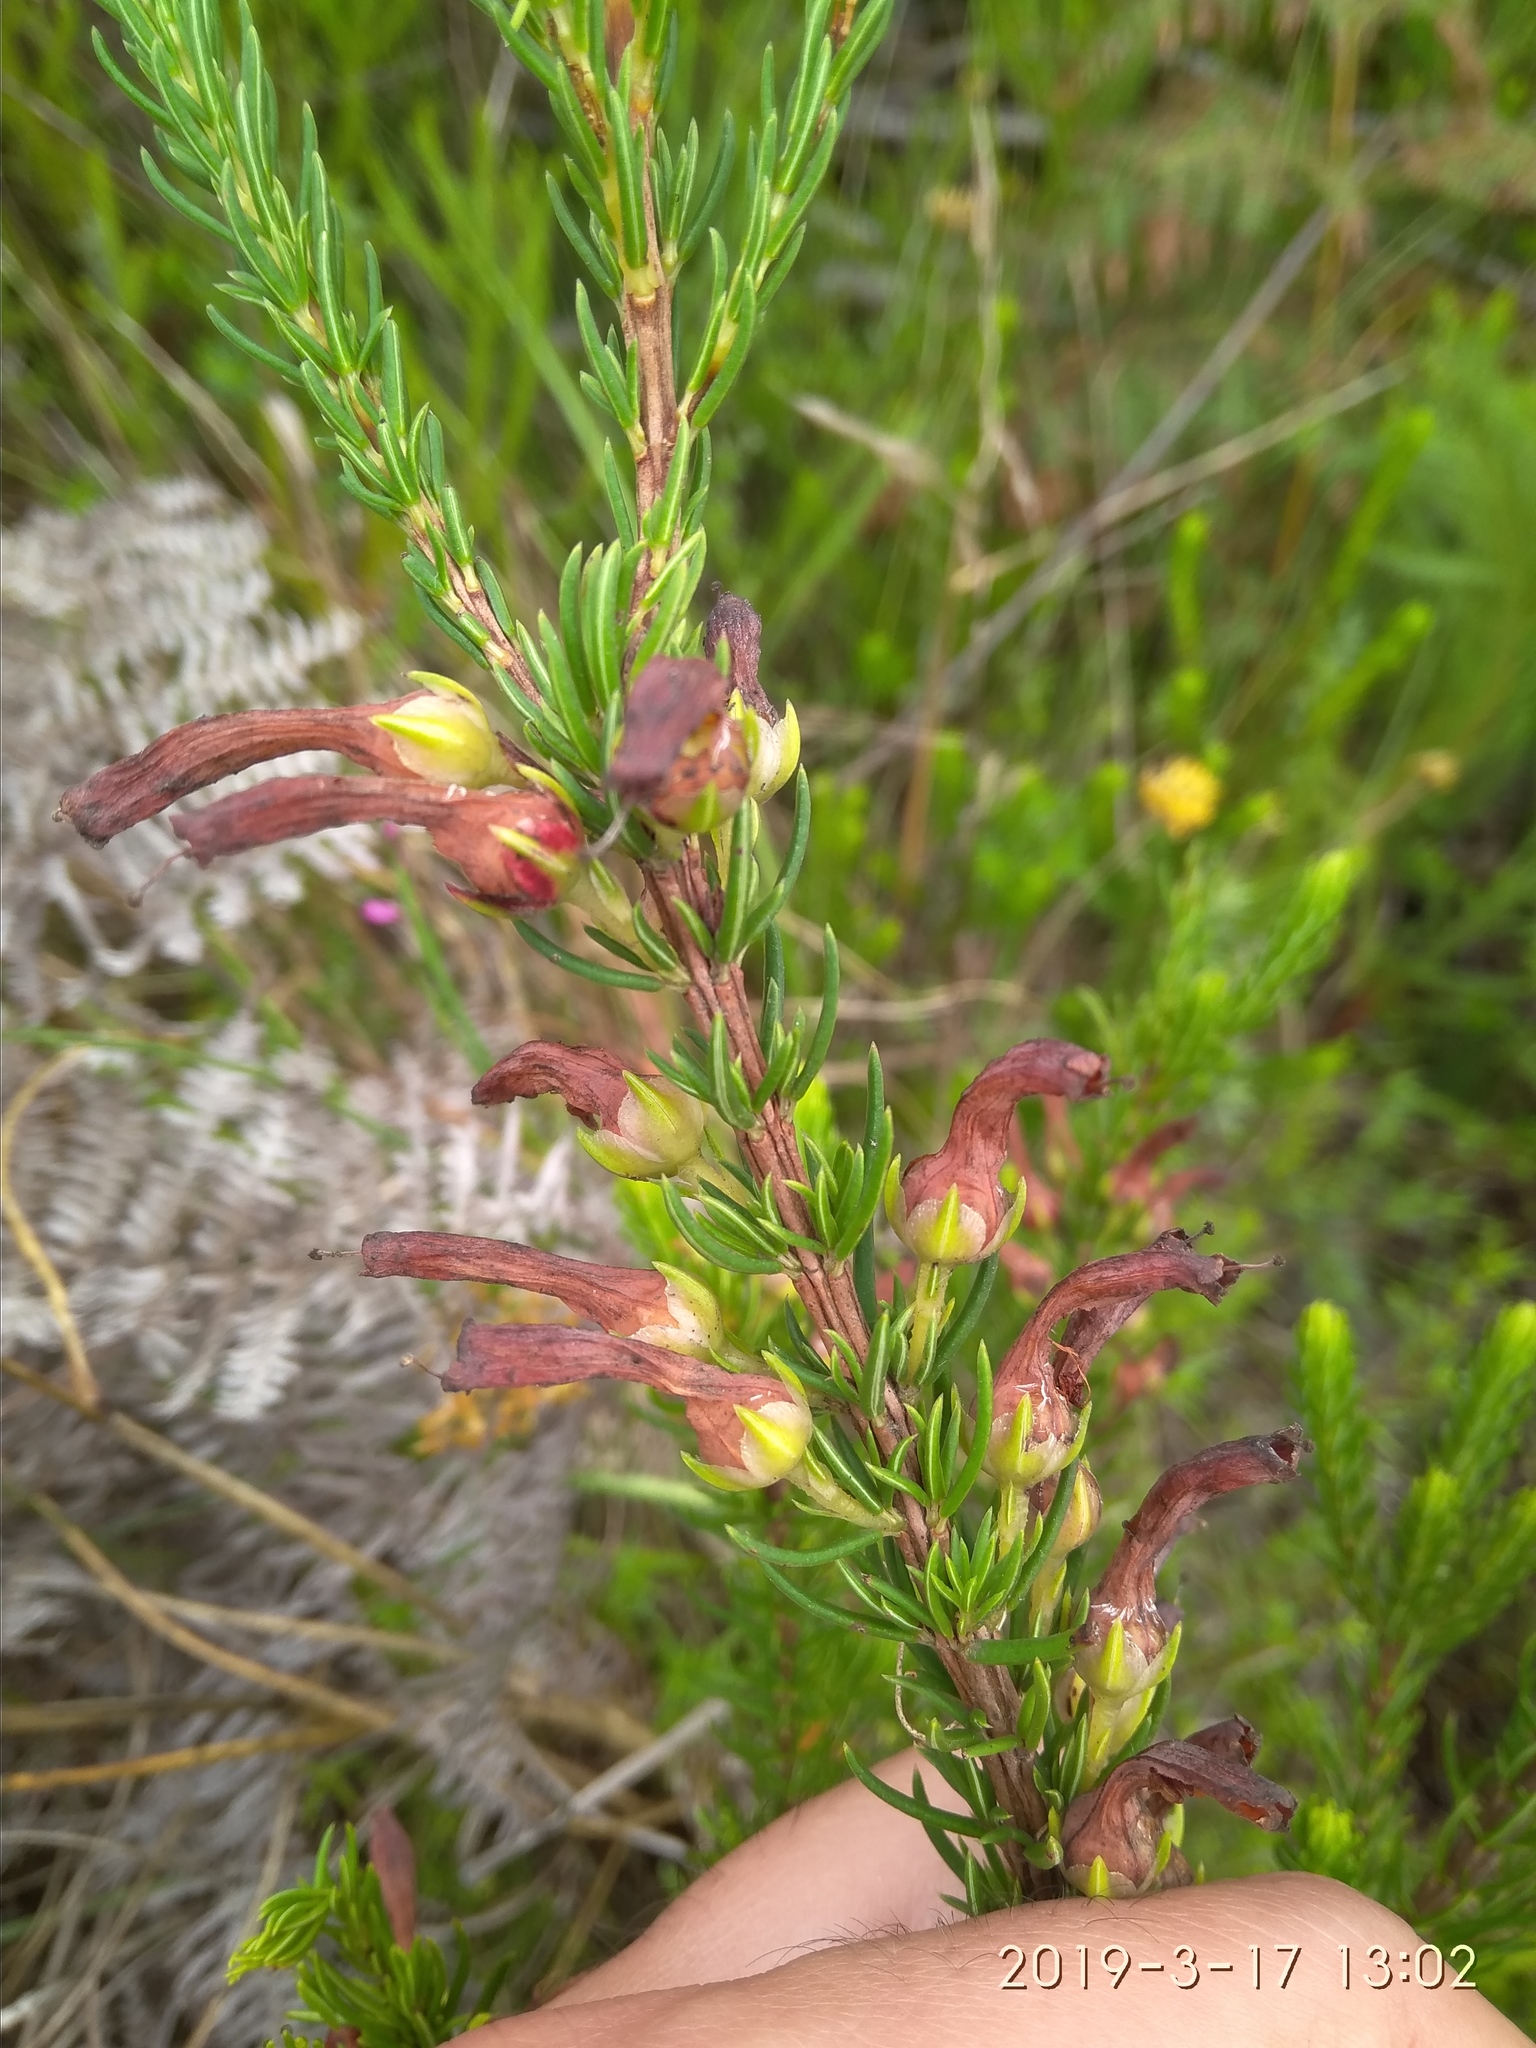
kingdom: Plantae
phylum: Tracheophyta
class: Magnoliopsida
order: Ericales
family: Ericaceae
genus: Erica
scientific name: Erica mammosa
